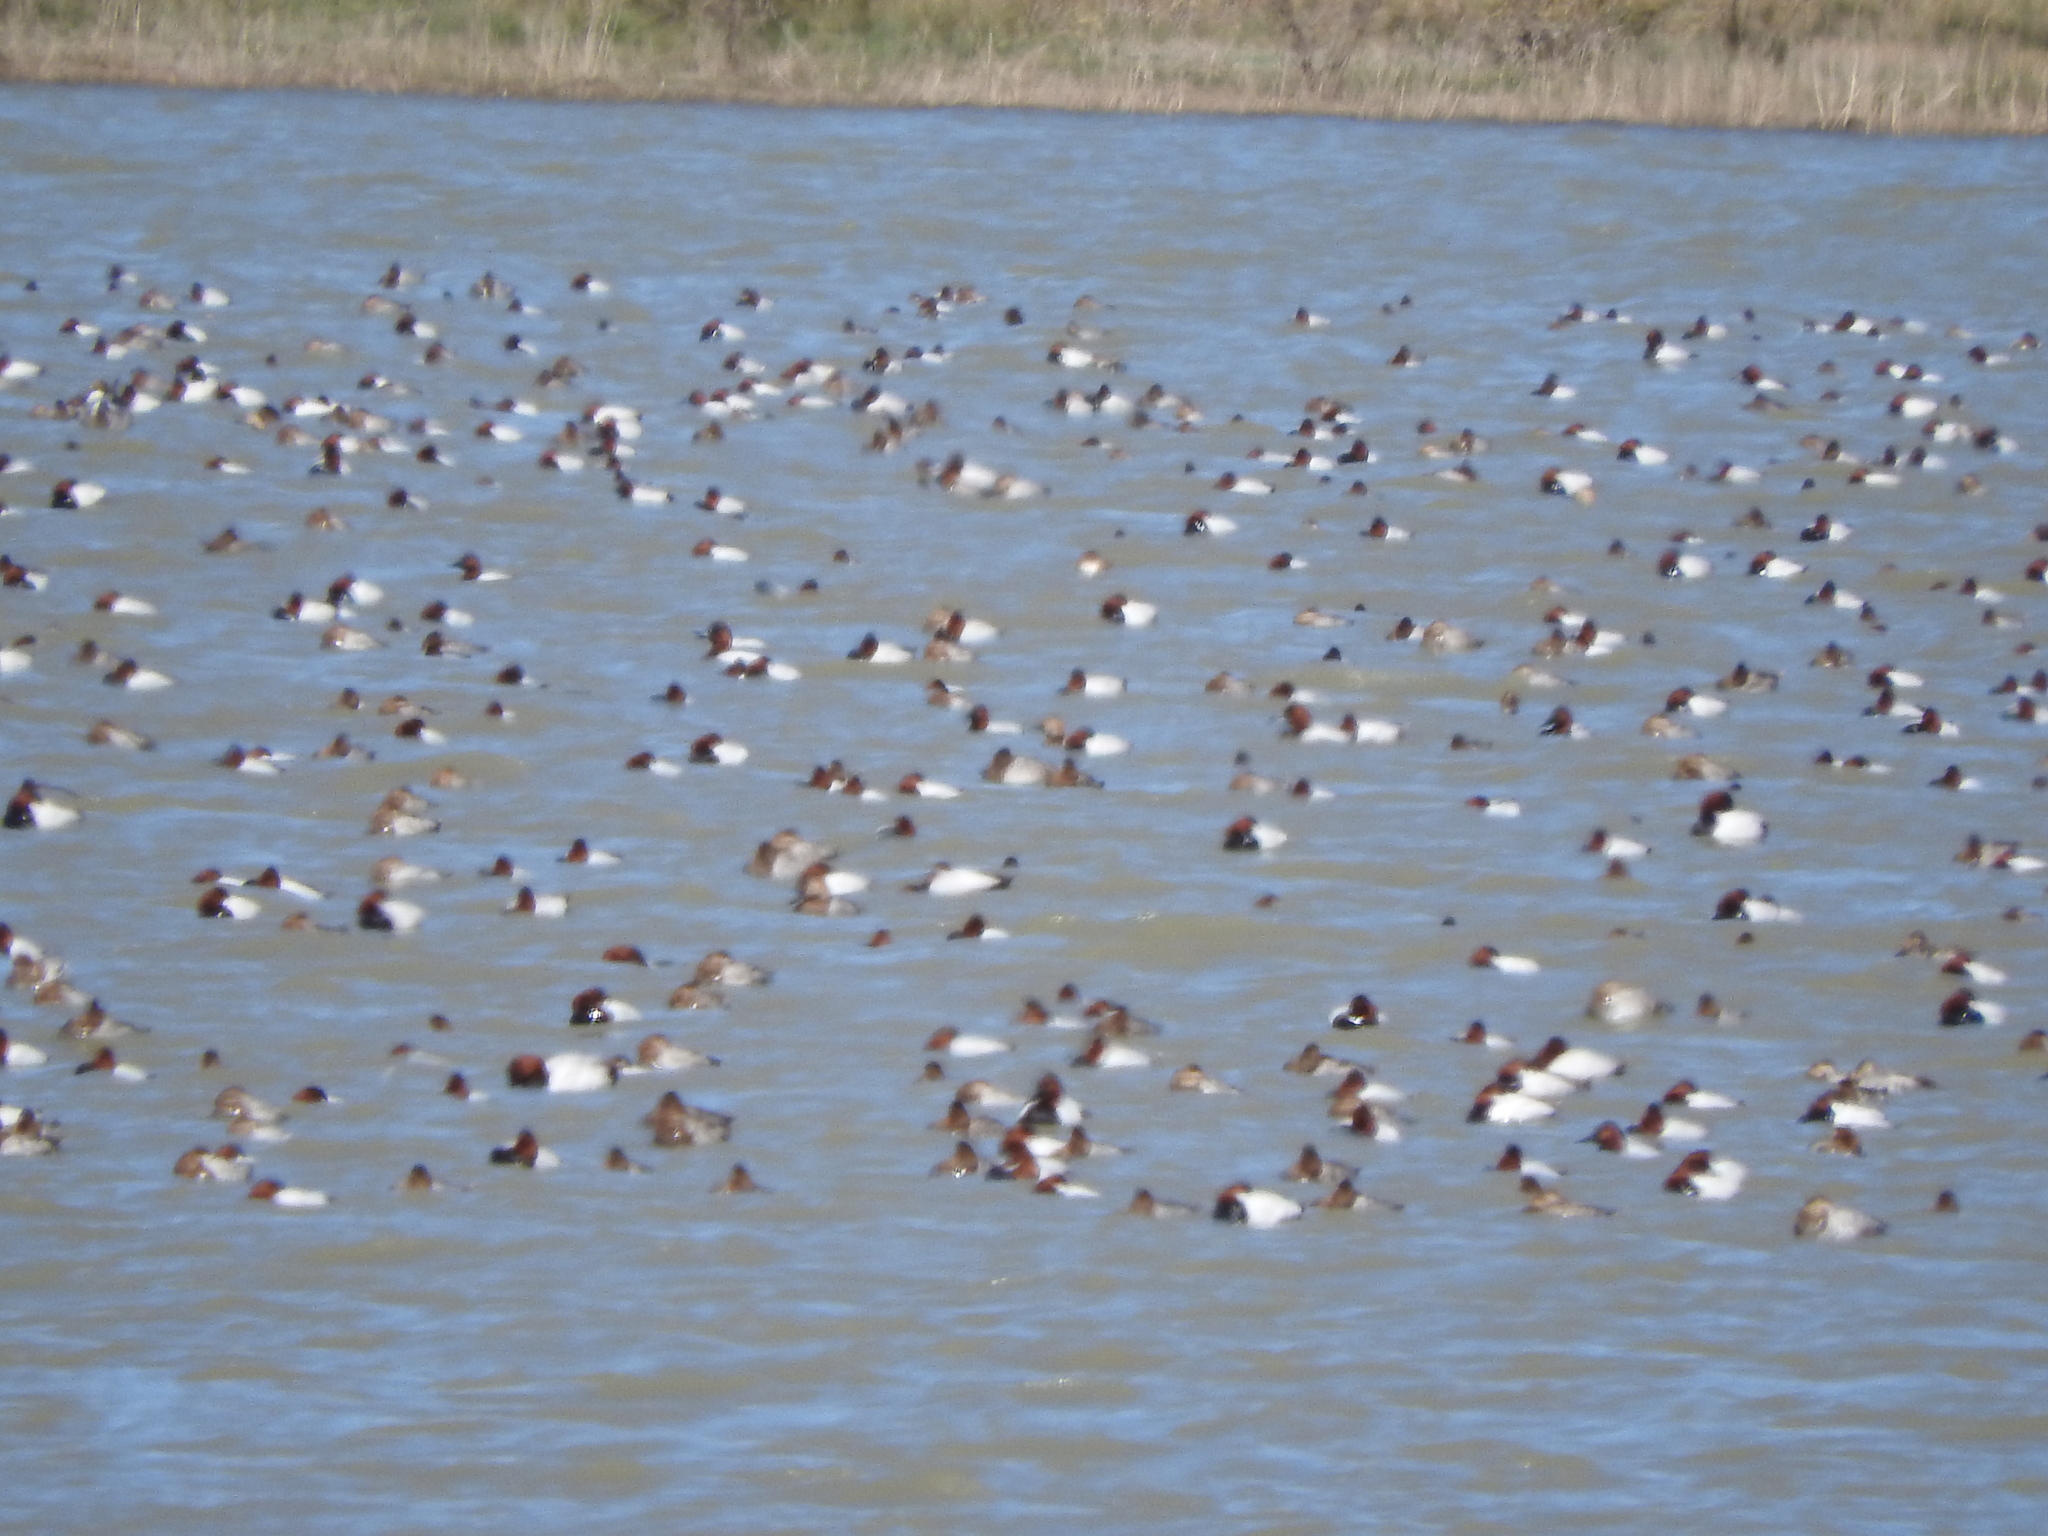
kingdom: Animalia
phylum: Chordata
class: Aves
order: Anseriformes
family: Anatidae
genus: Aythya
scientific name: Aythya valisineria
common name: Canvasback
